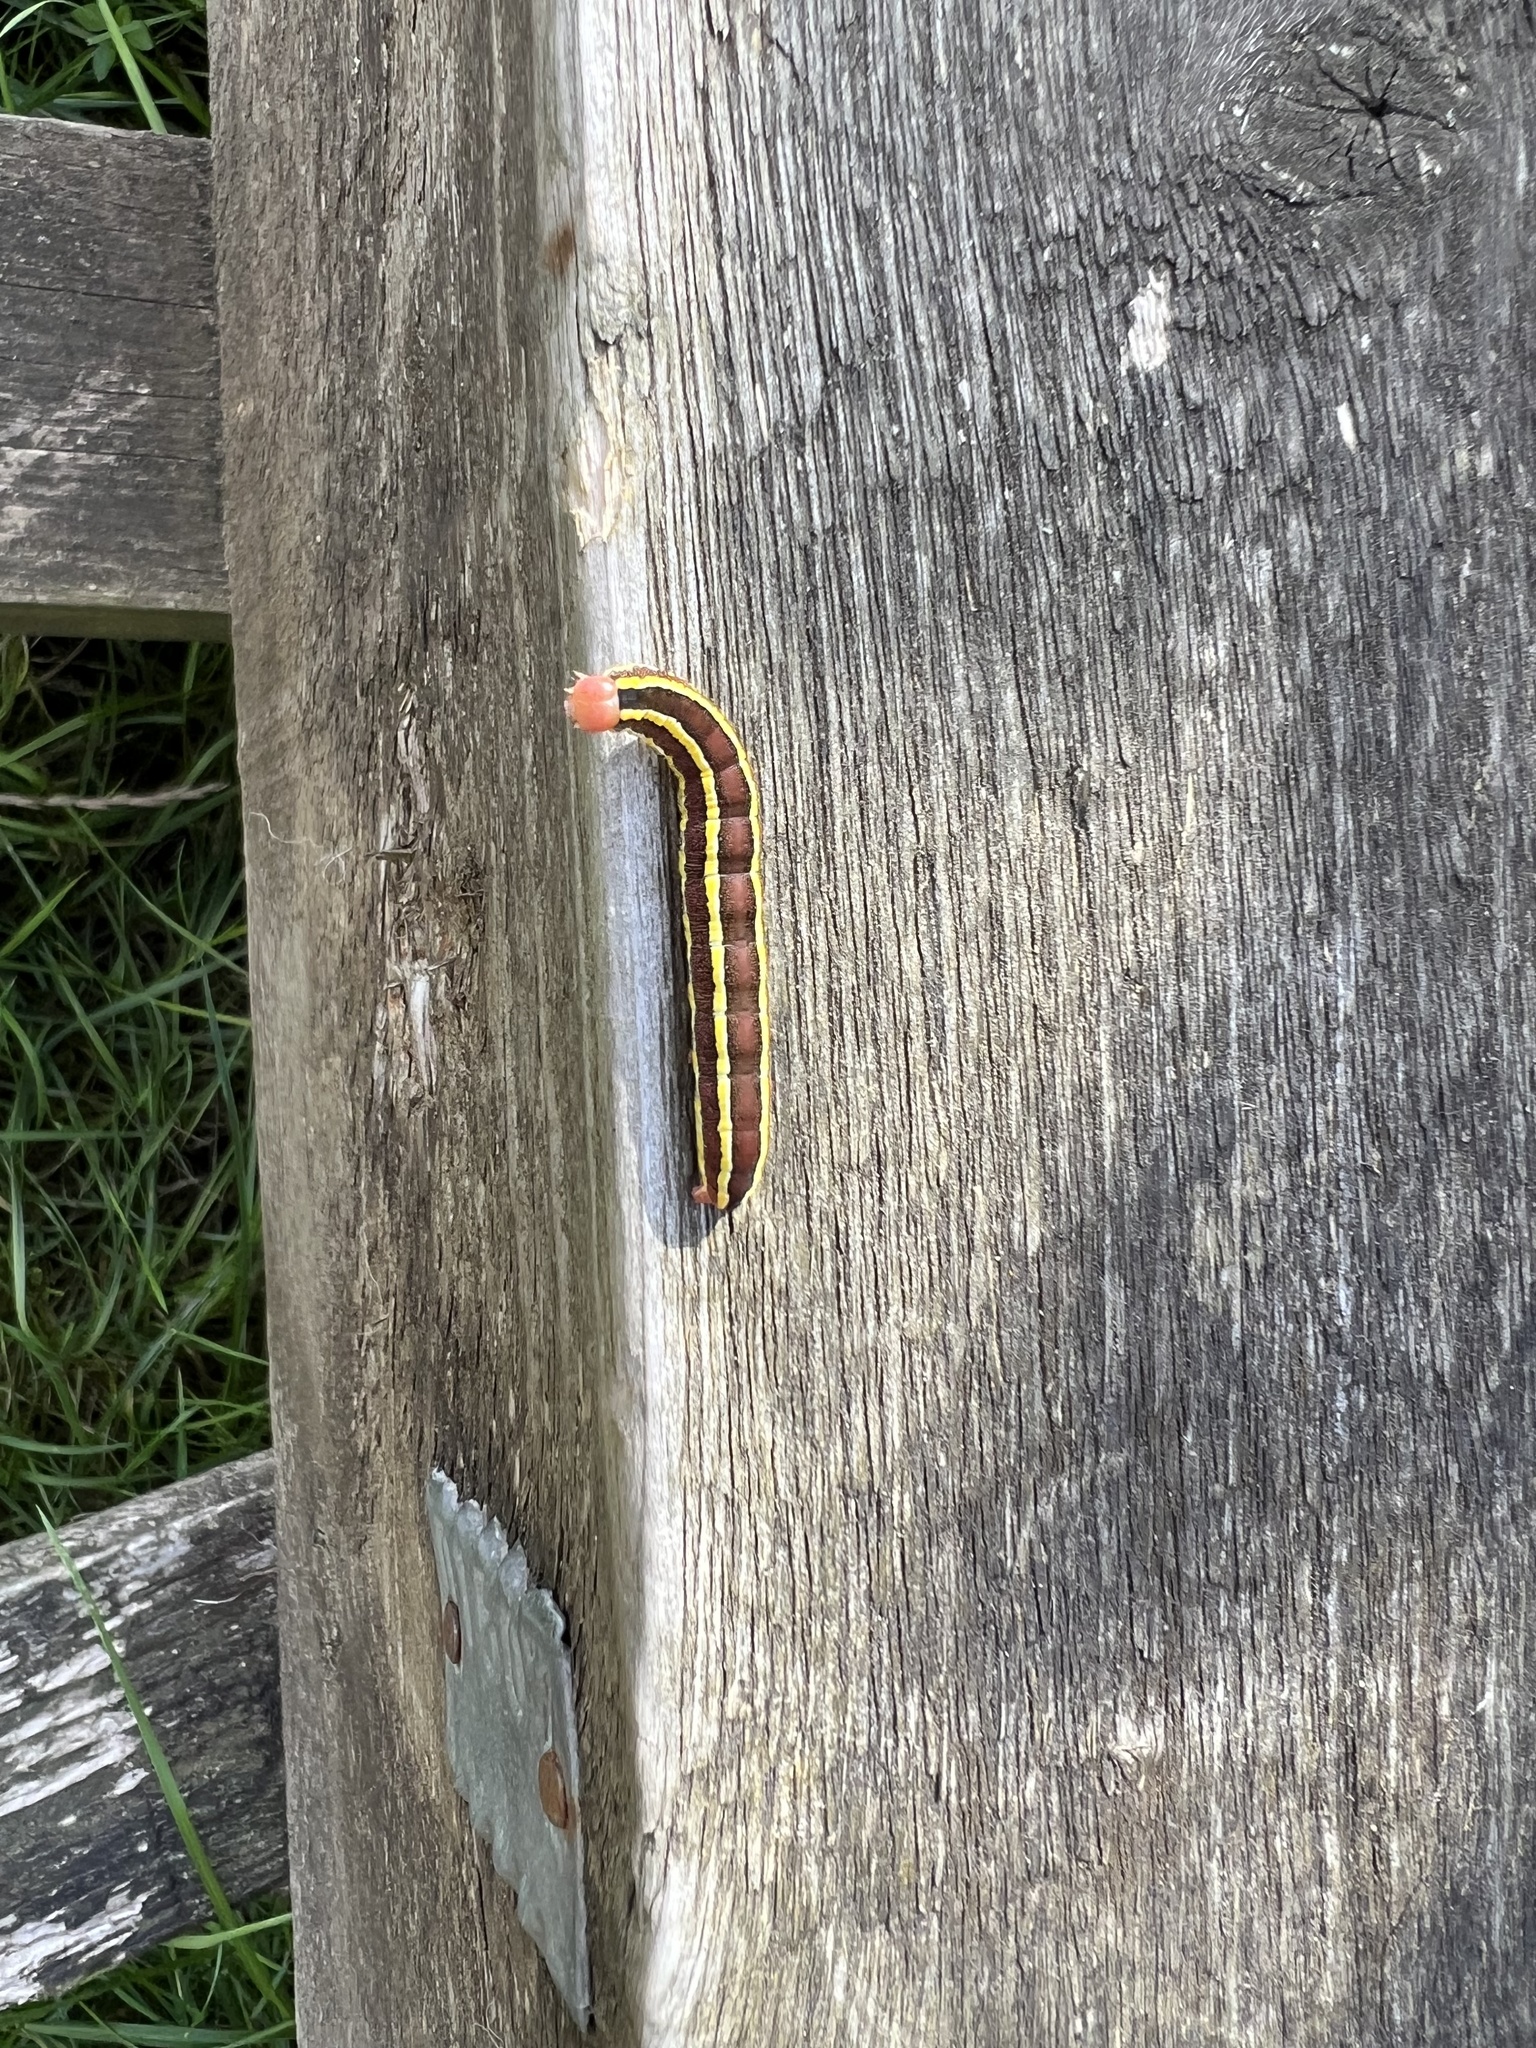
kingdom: Animalia
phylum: Arthropoda
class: Insecta
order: Lepidoptera
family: Noctuidae
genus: Ceramica
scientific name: Ceramica pisi
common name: Broom moth
